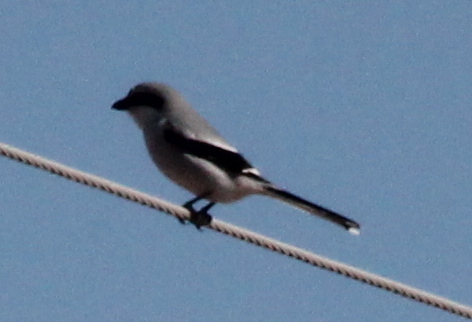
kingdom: Animalia
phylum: Chordata
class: Aves
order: Passeriformes
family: Laniidae
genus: Lanius
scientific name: Lanius ludovicianus
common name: Loggerhead shrike
